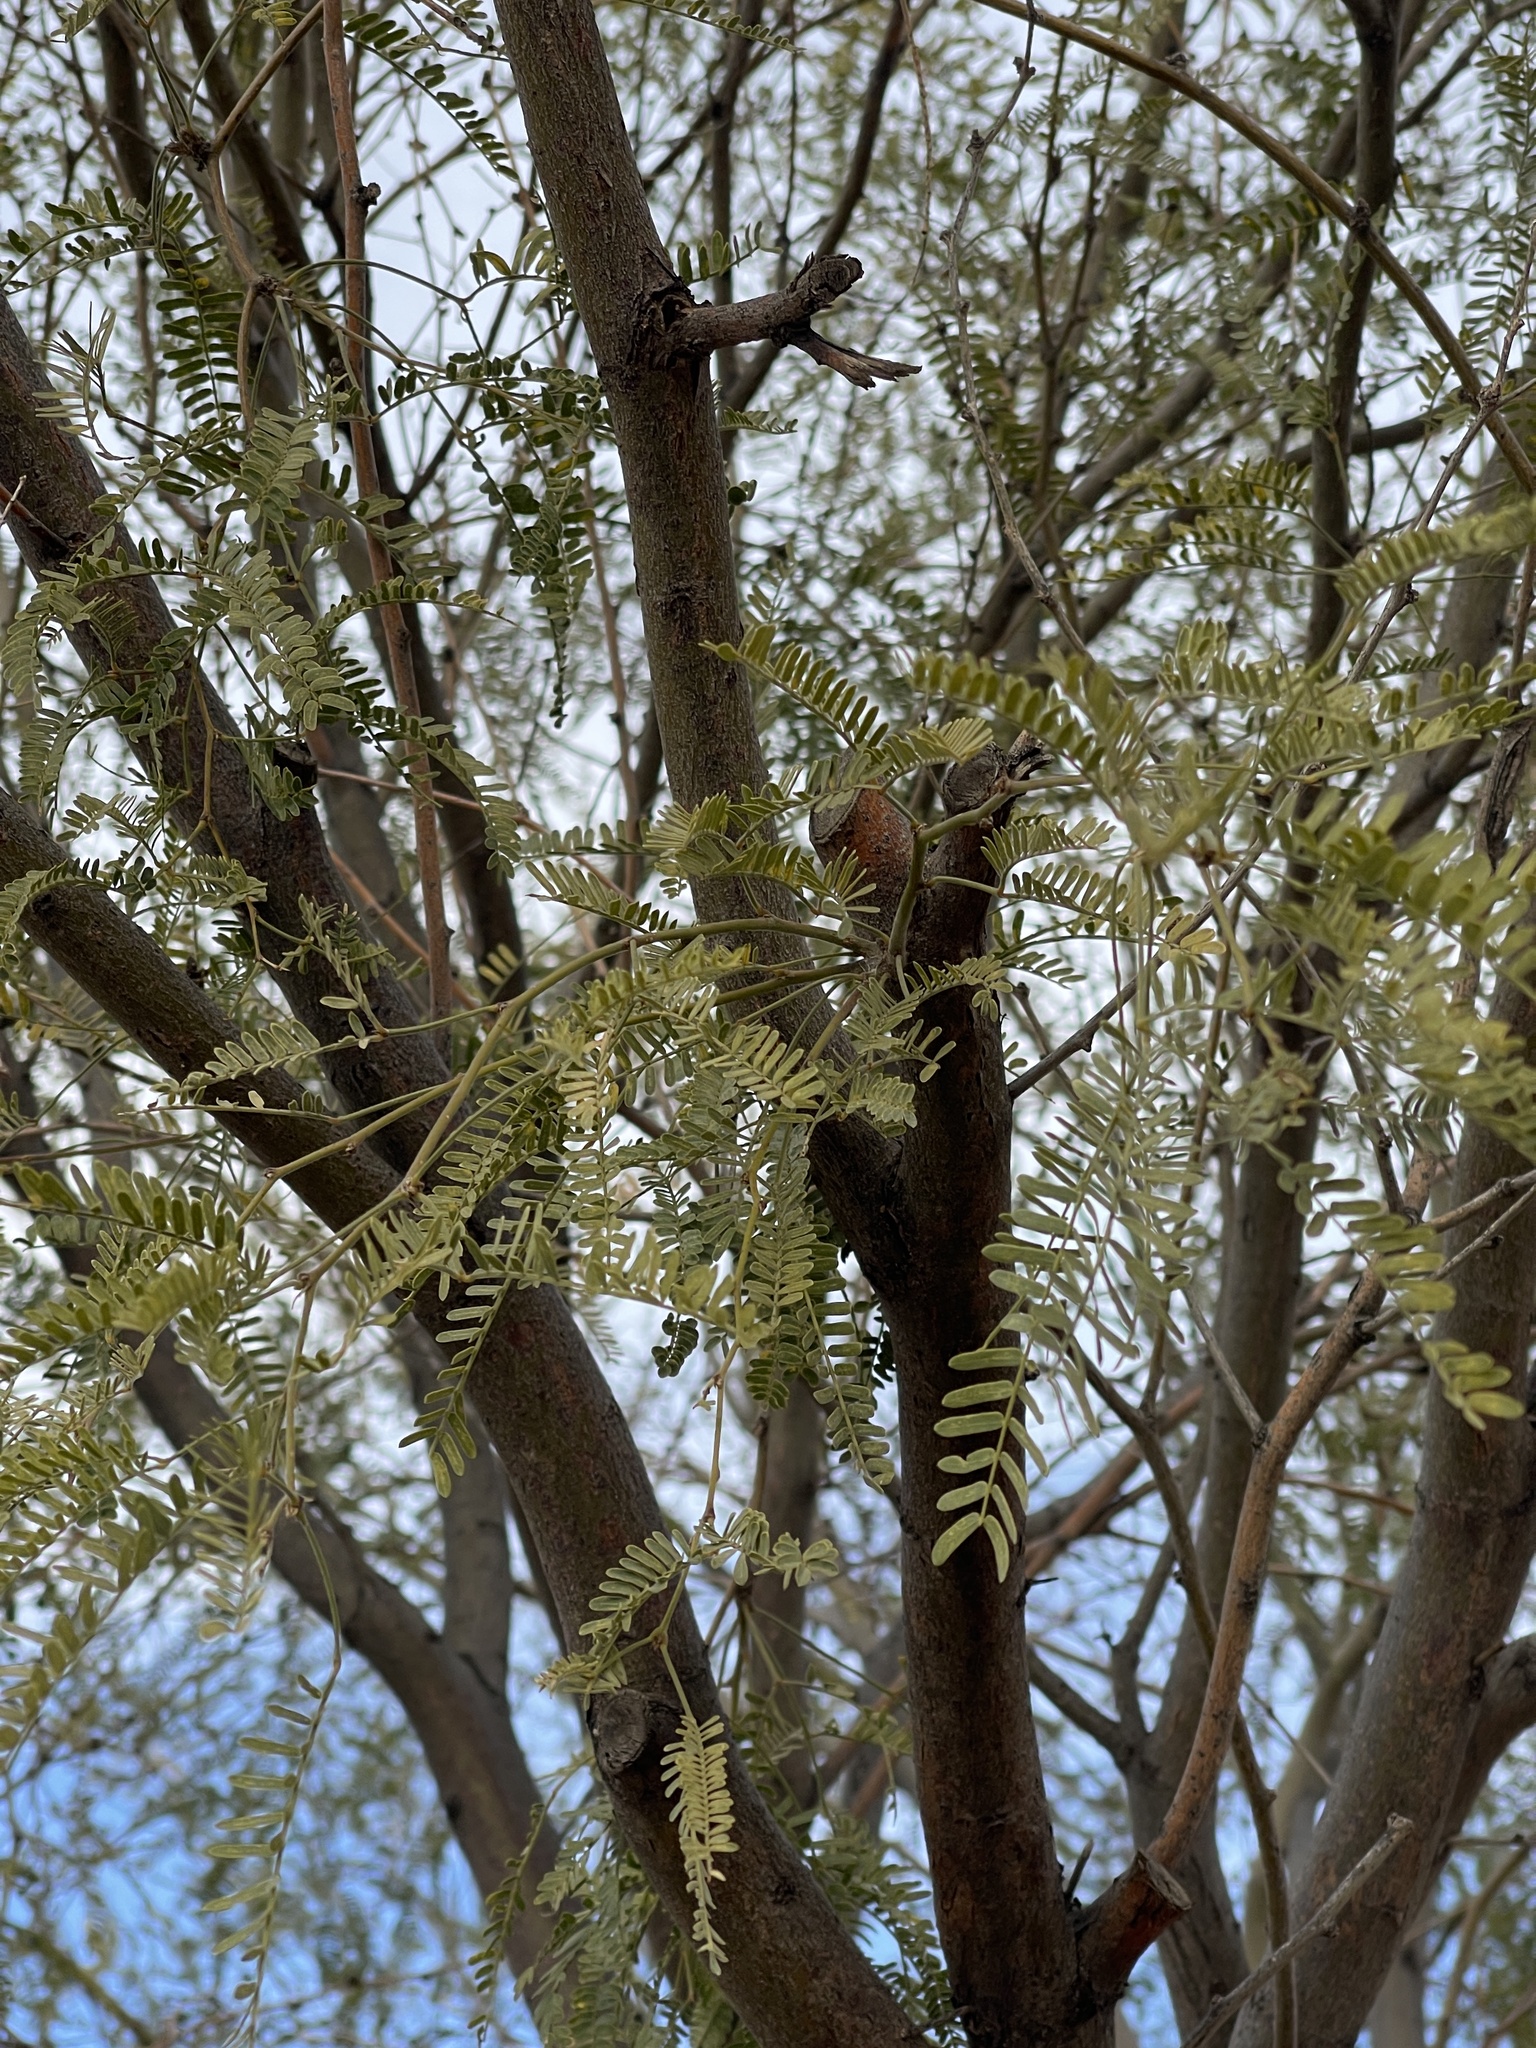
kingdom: Plantae
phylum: Tracheophyta
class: Magnoliopsida
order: Fabales
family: Fabaceae
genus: Prosopis
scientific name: Prosopis glandulosa
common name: Honey mesquite
